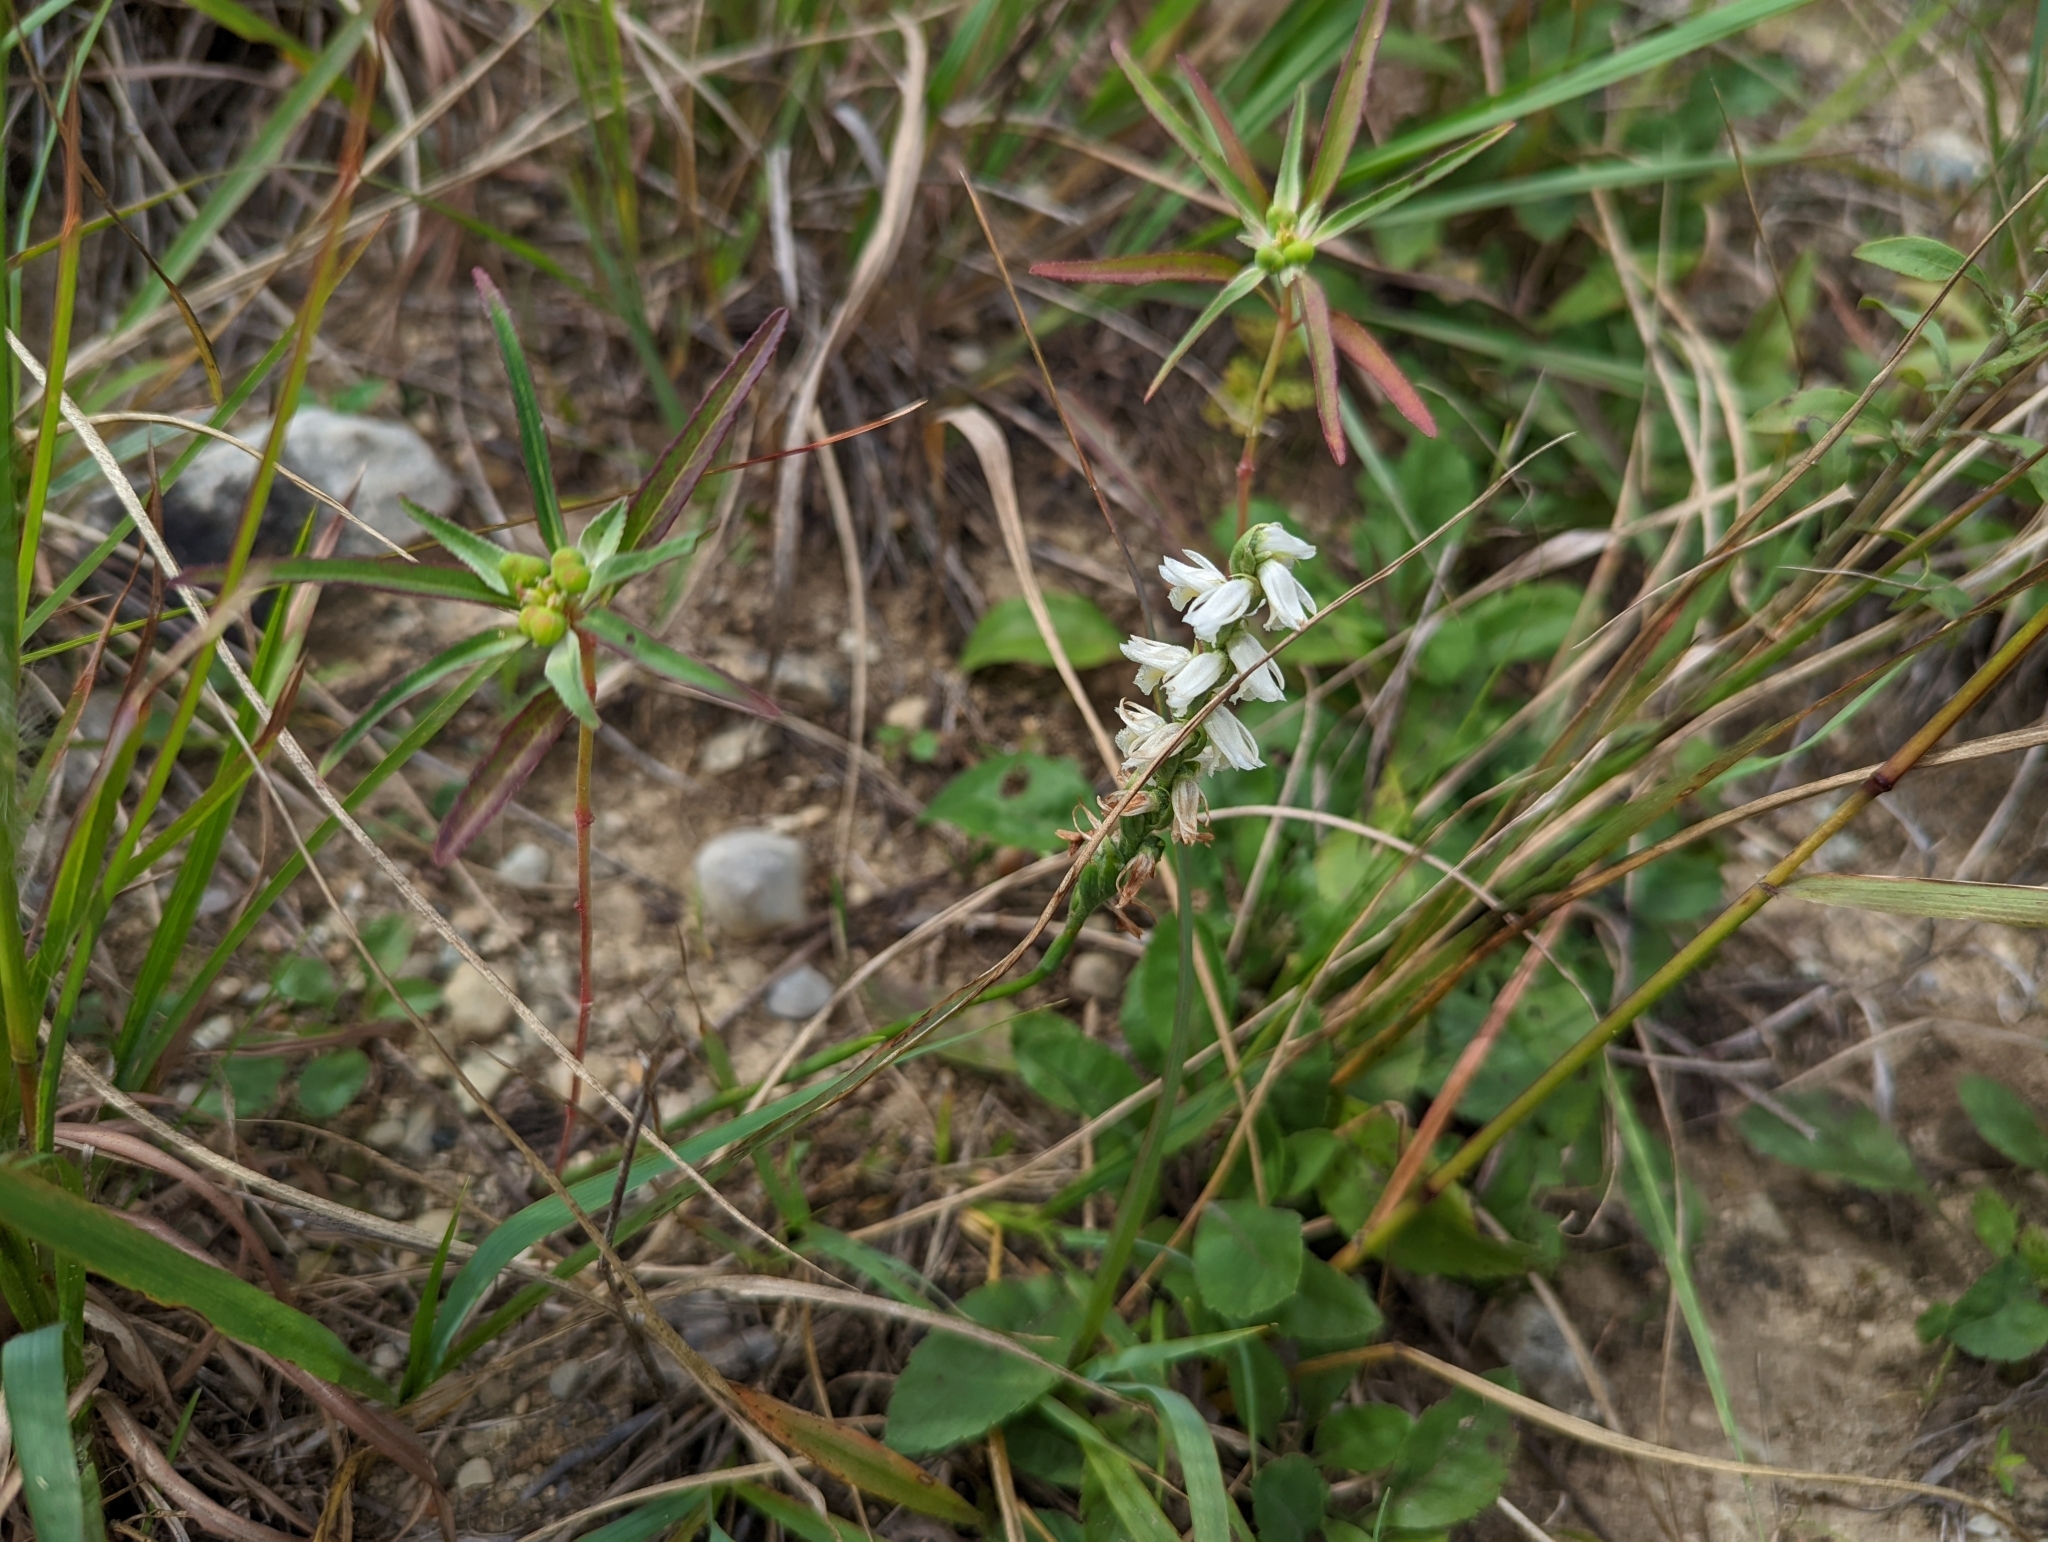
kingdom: Plantae
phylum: Tracheophyta
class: Liliopsida
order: Asparagales
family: Orchidaceae
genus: Spiranthes
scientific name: Spiranthes magnicamporum
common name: Great plains ladies'-tresses
